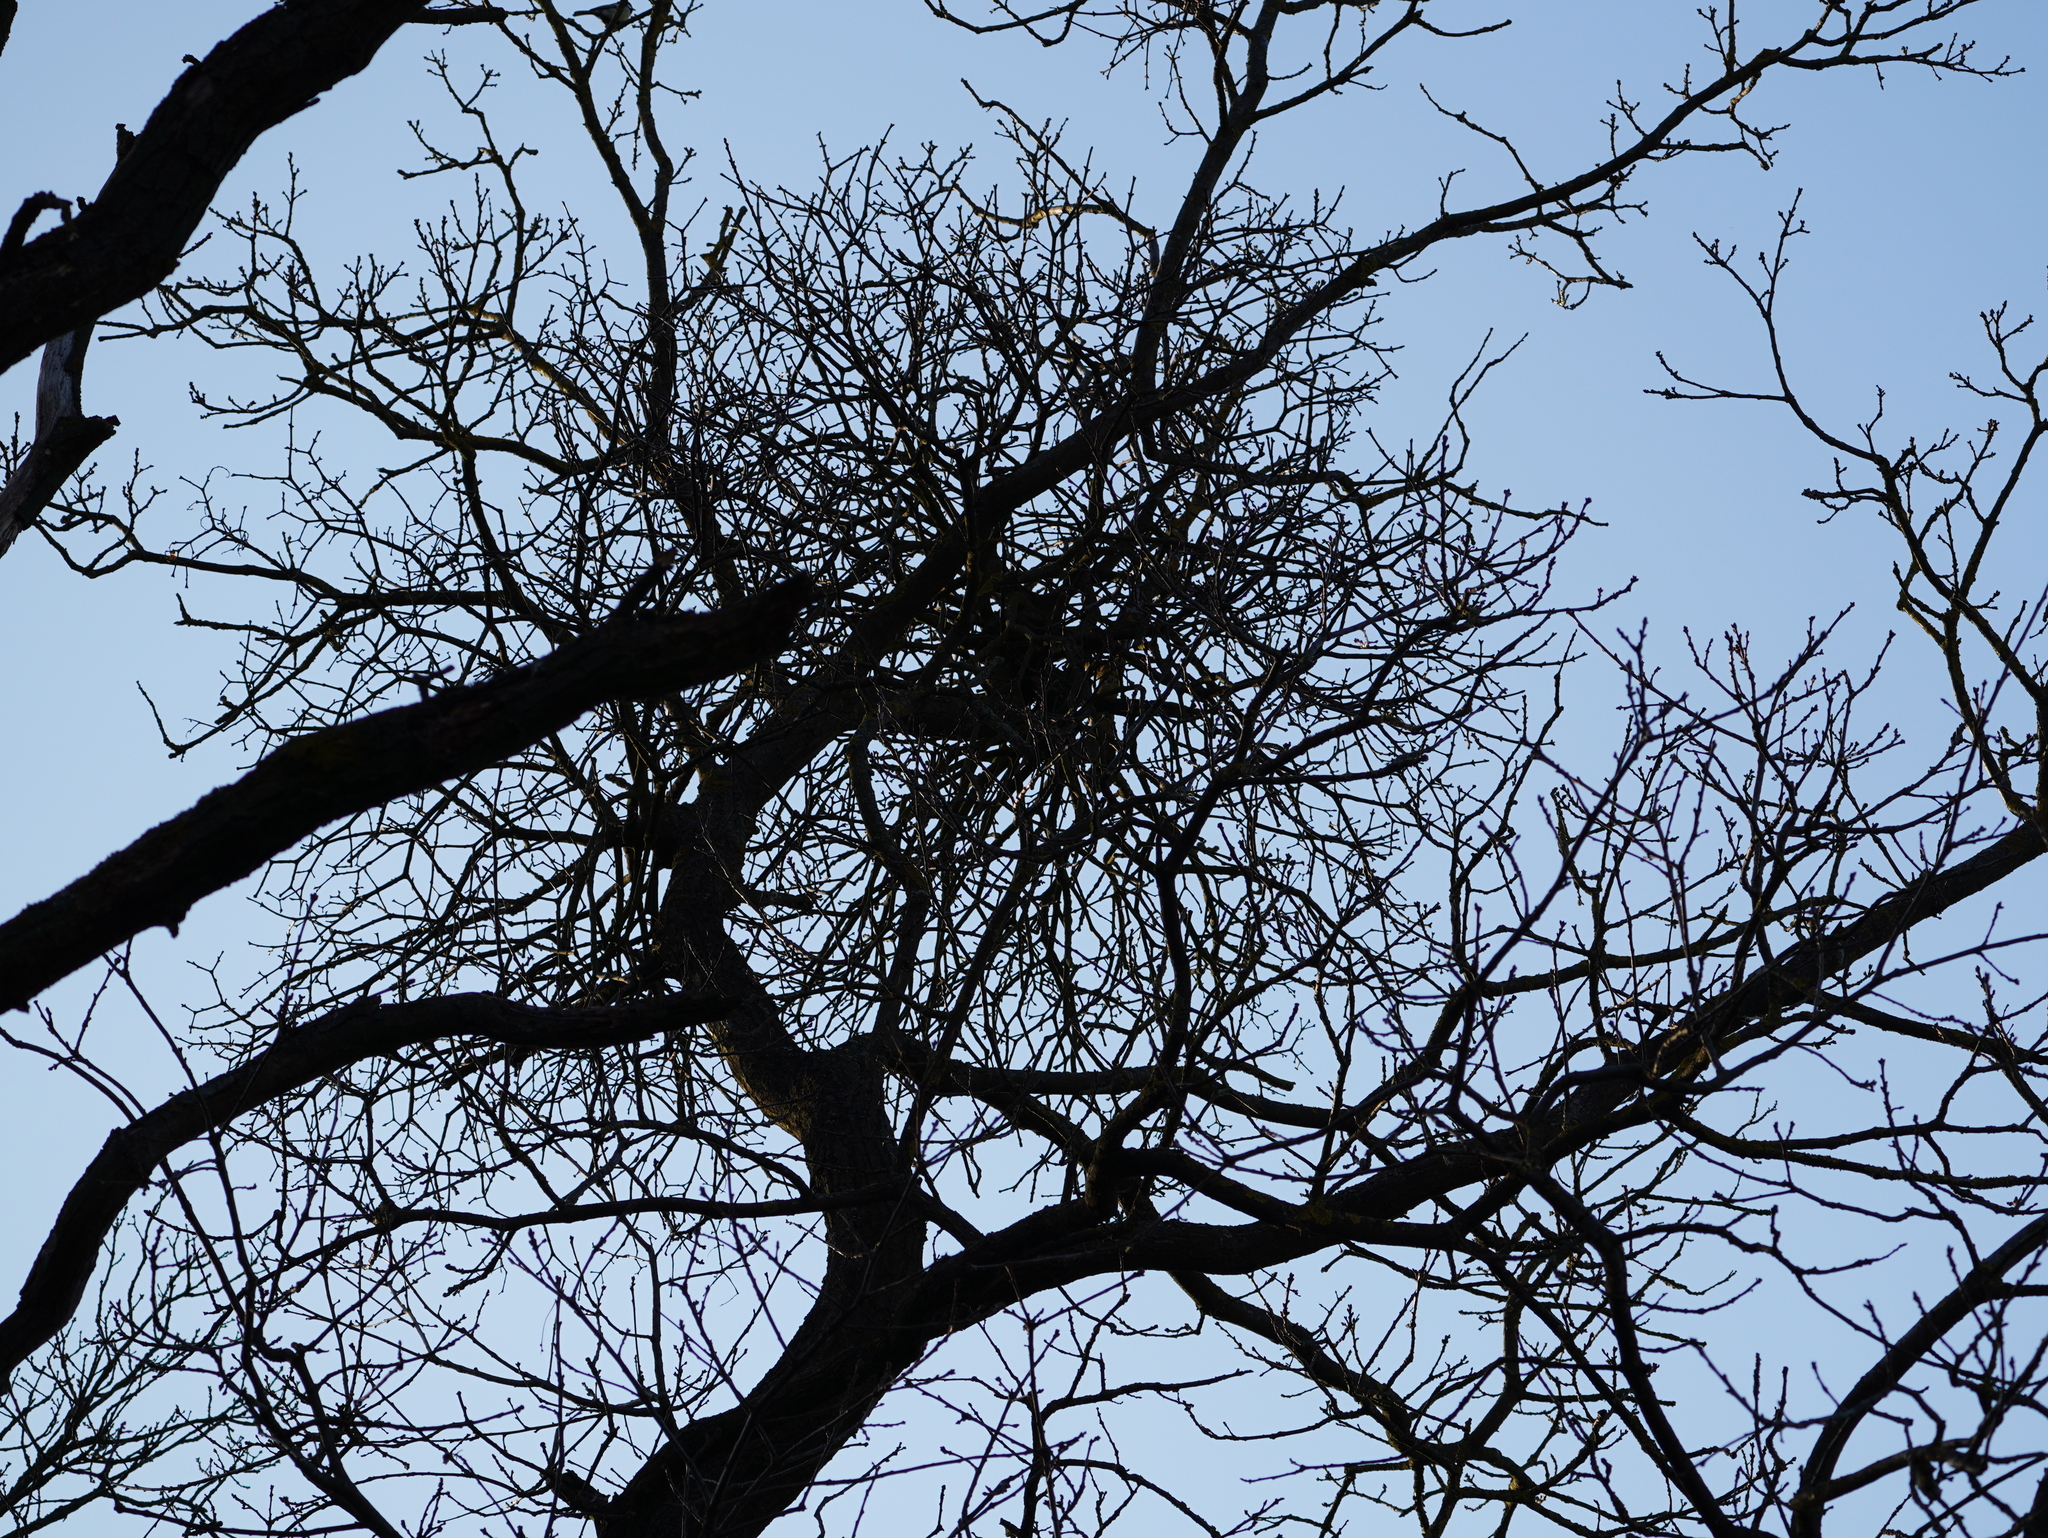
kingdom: Plantae
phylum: Tracheophyta
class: Magnoliopsida
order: Santalales
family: Loranthaceae
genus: Loranthus
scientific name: Loranthus europaeus
